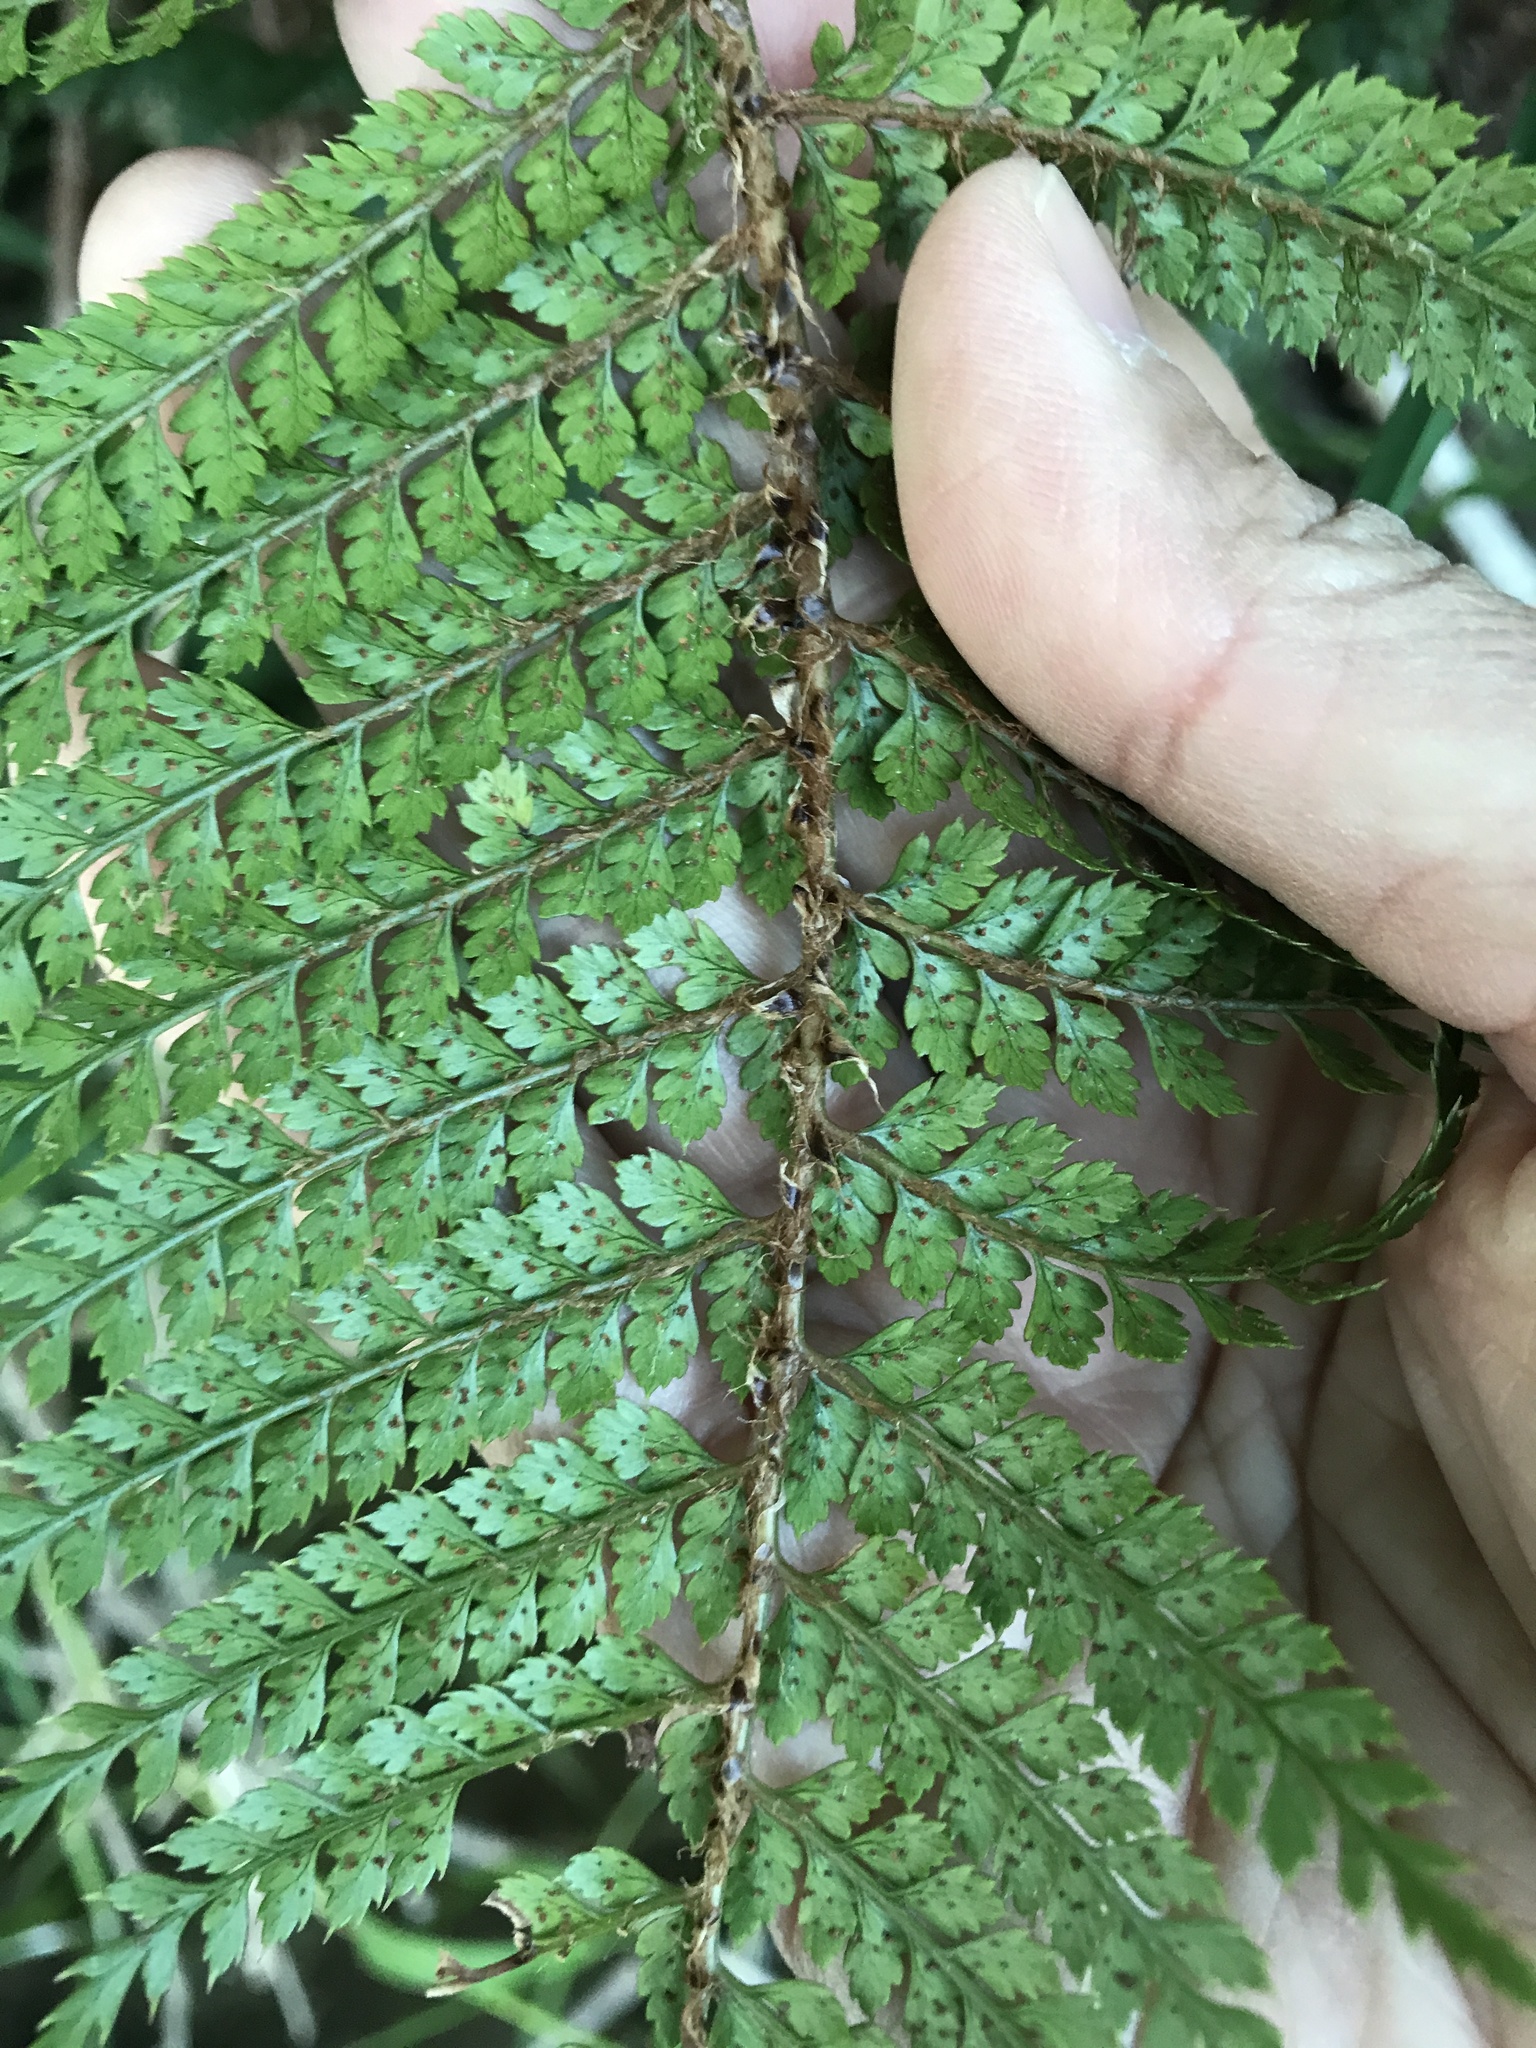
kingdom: Plantae
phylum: Tracheophyta
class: Polypodiopsida
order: Polypodiales
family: Dryopteridaceae
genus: Polystichum
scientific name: Polystichum vestitum
